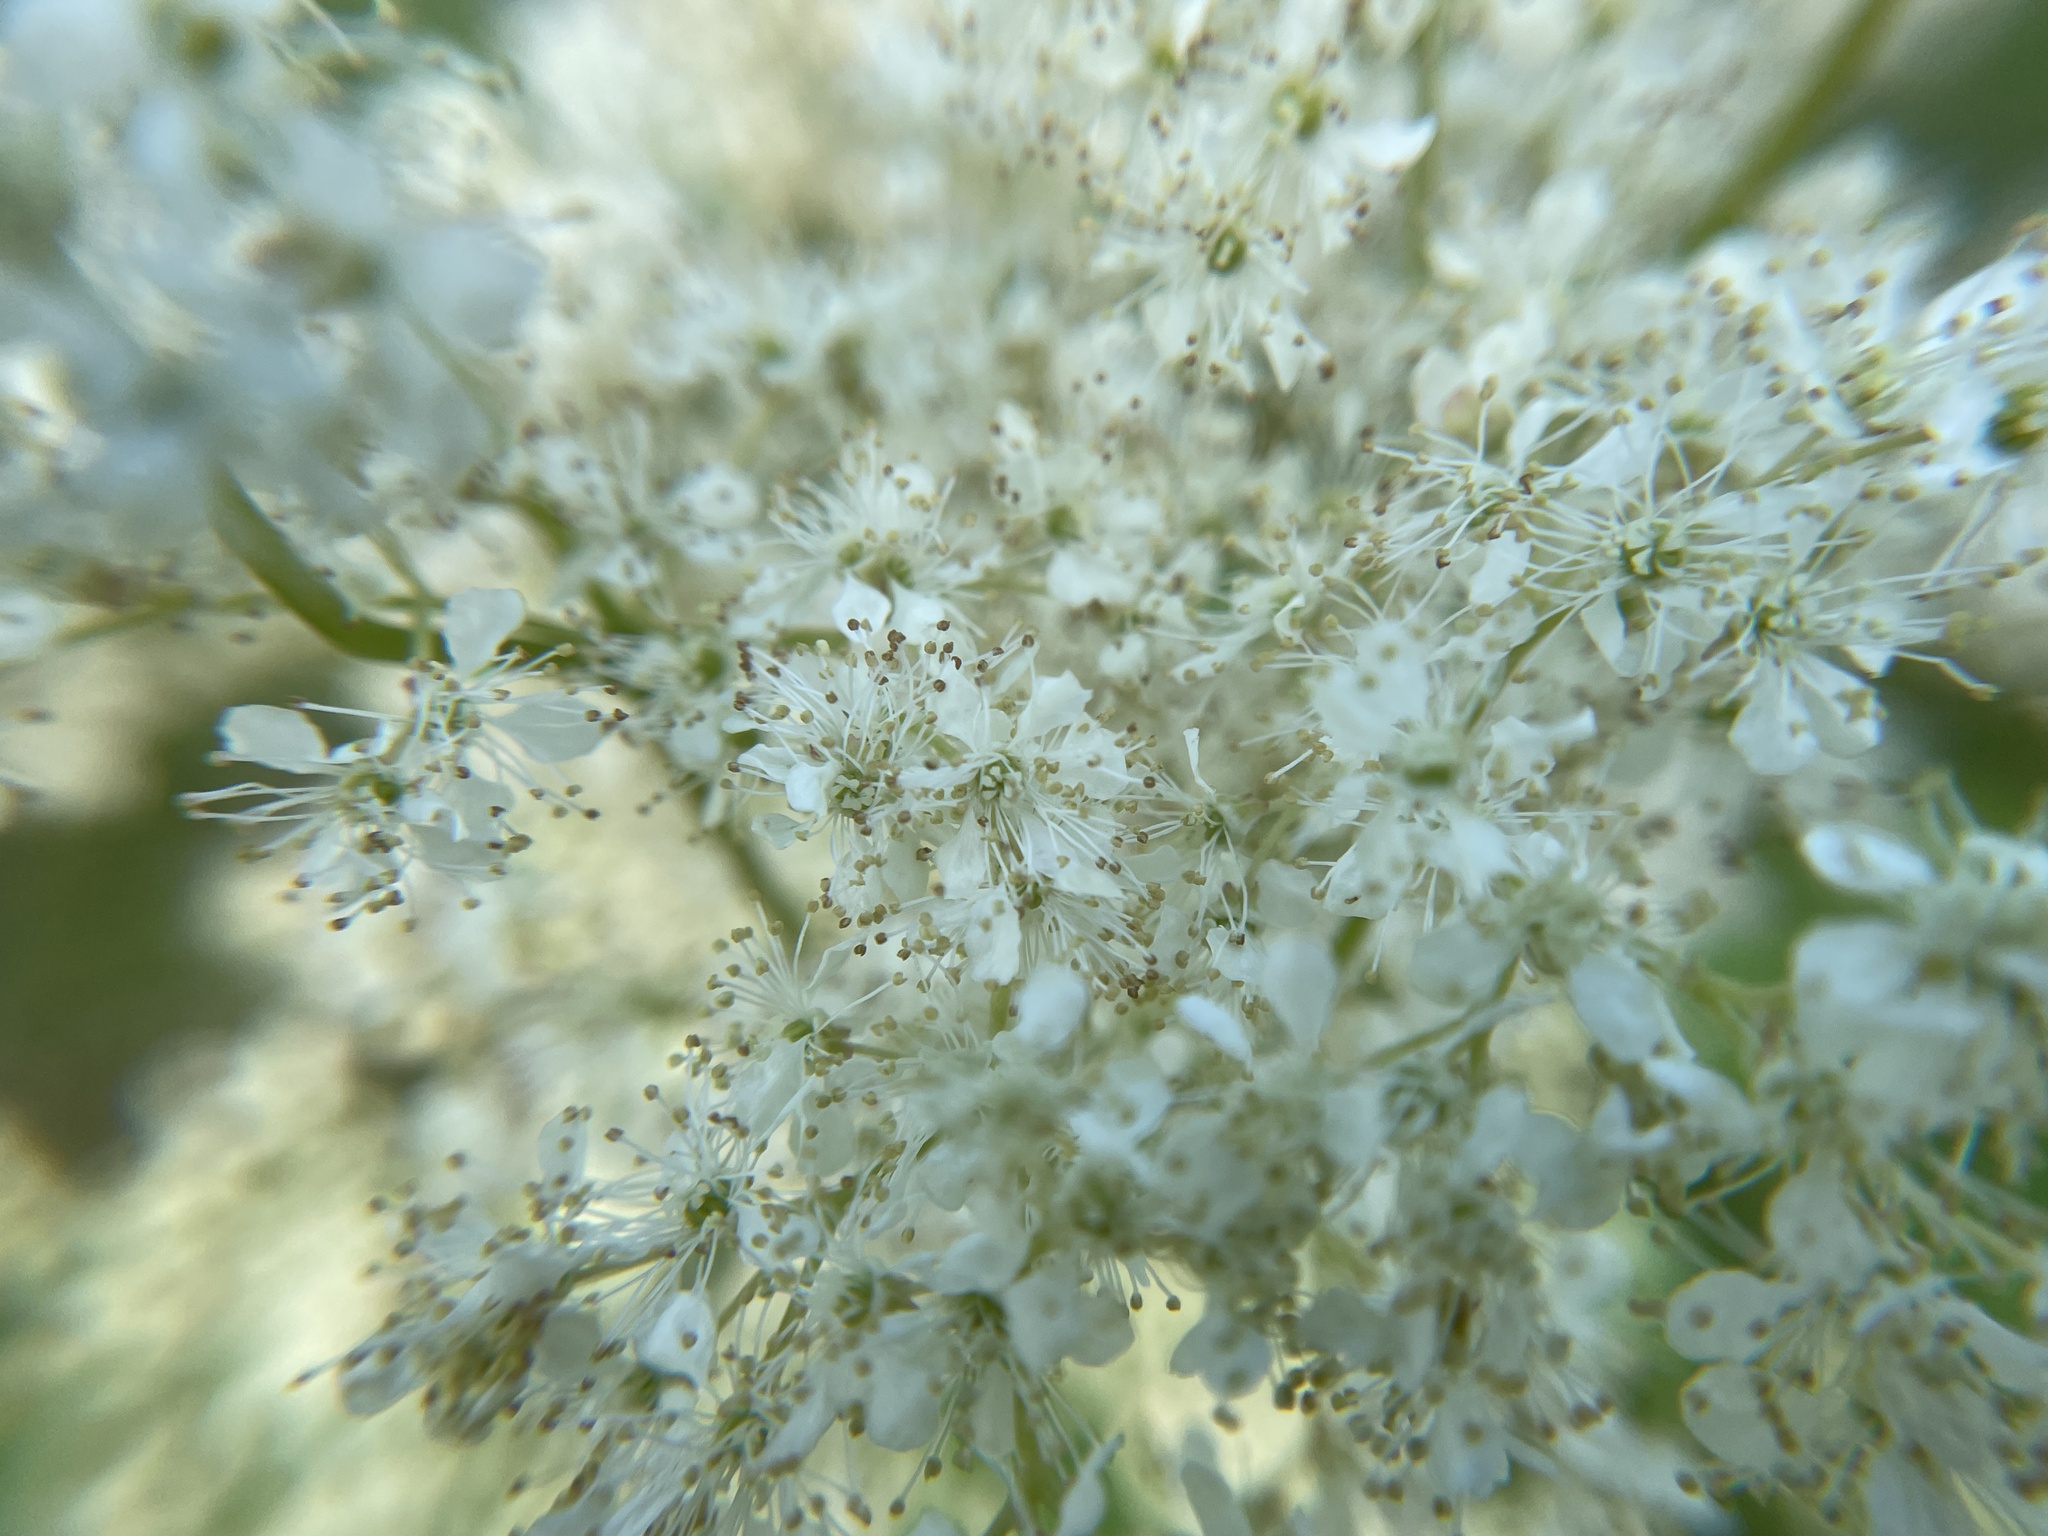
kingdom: Plantae
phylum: Tracheophyta
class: Magnoliopsida
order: Rosales
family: Rosaceae
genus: Filipendula
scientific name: Filipendula ulmaria
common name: Meadowsweet
